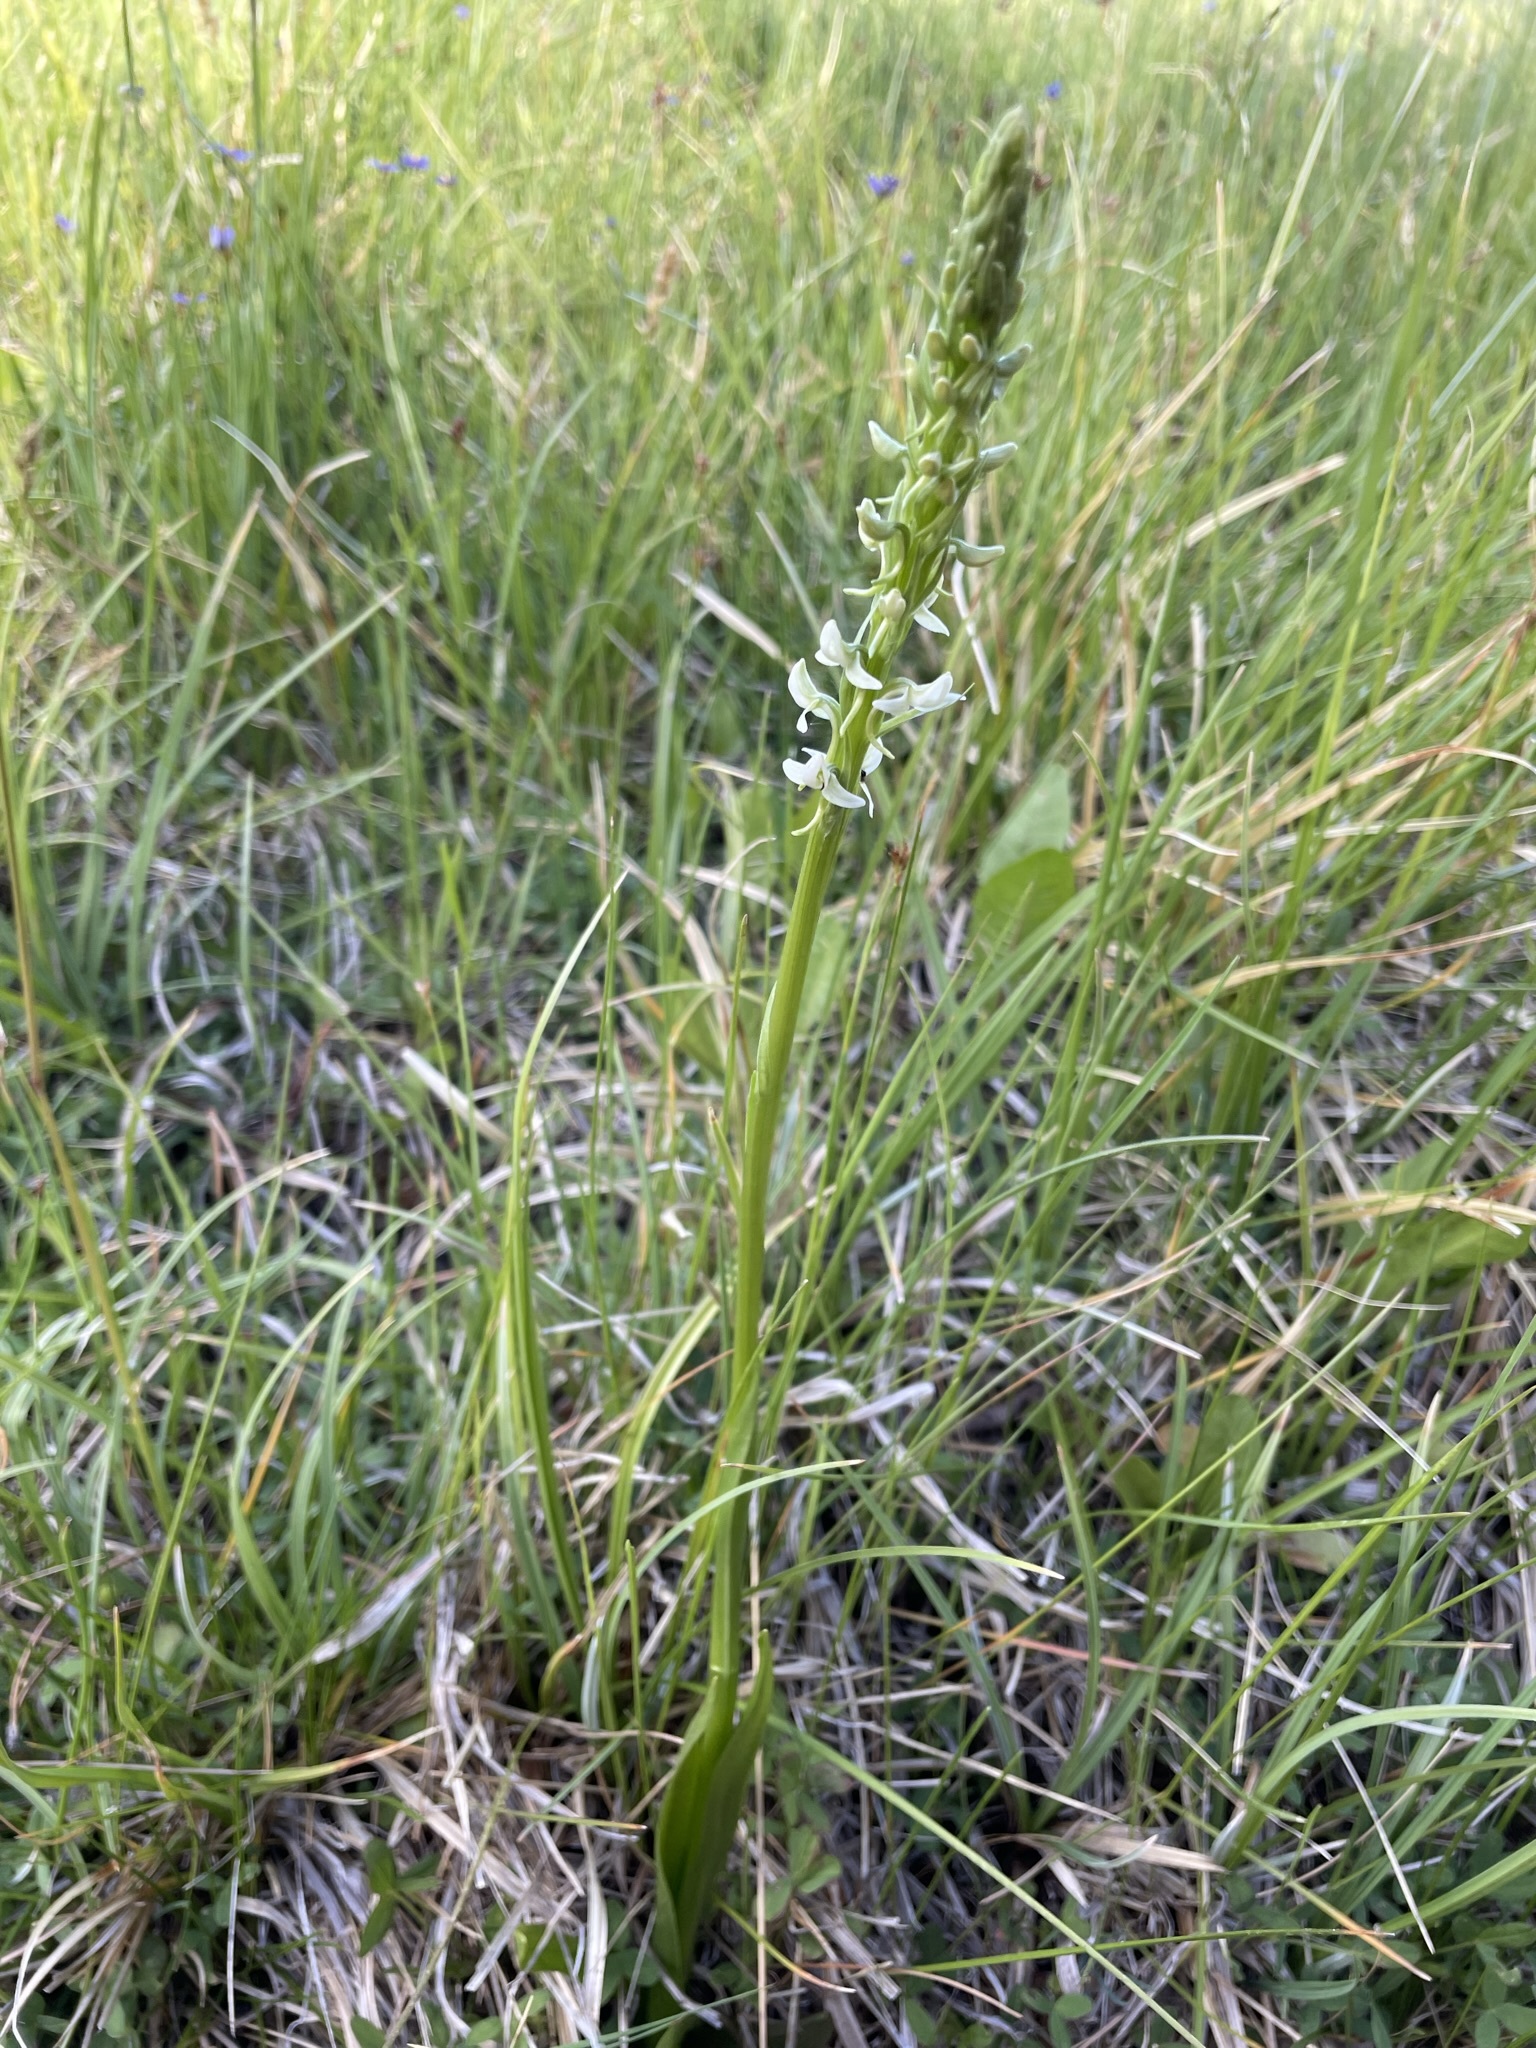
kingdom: Plantae
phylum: Tracheophyta
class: Liliopsida
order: Asparagales
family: Orchidaceae
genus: Platanthera
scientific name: Platanthera dilatata
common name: Bog candles
